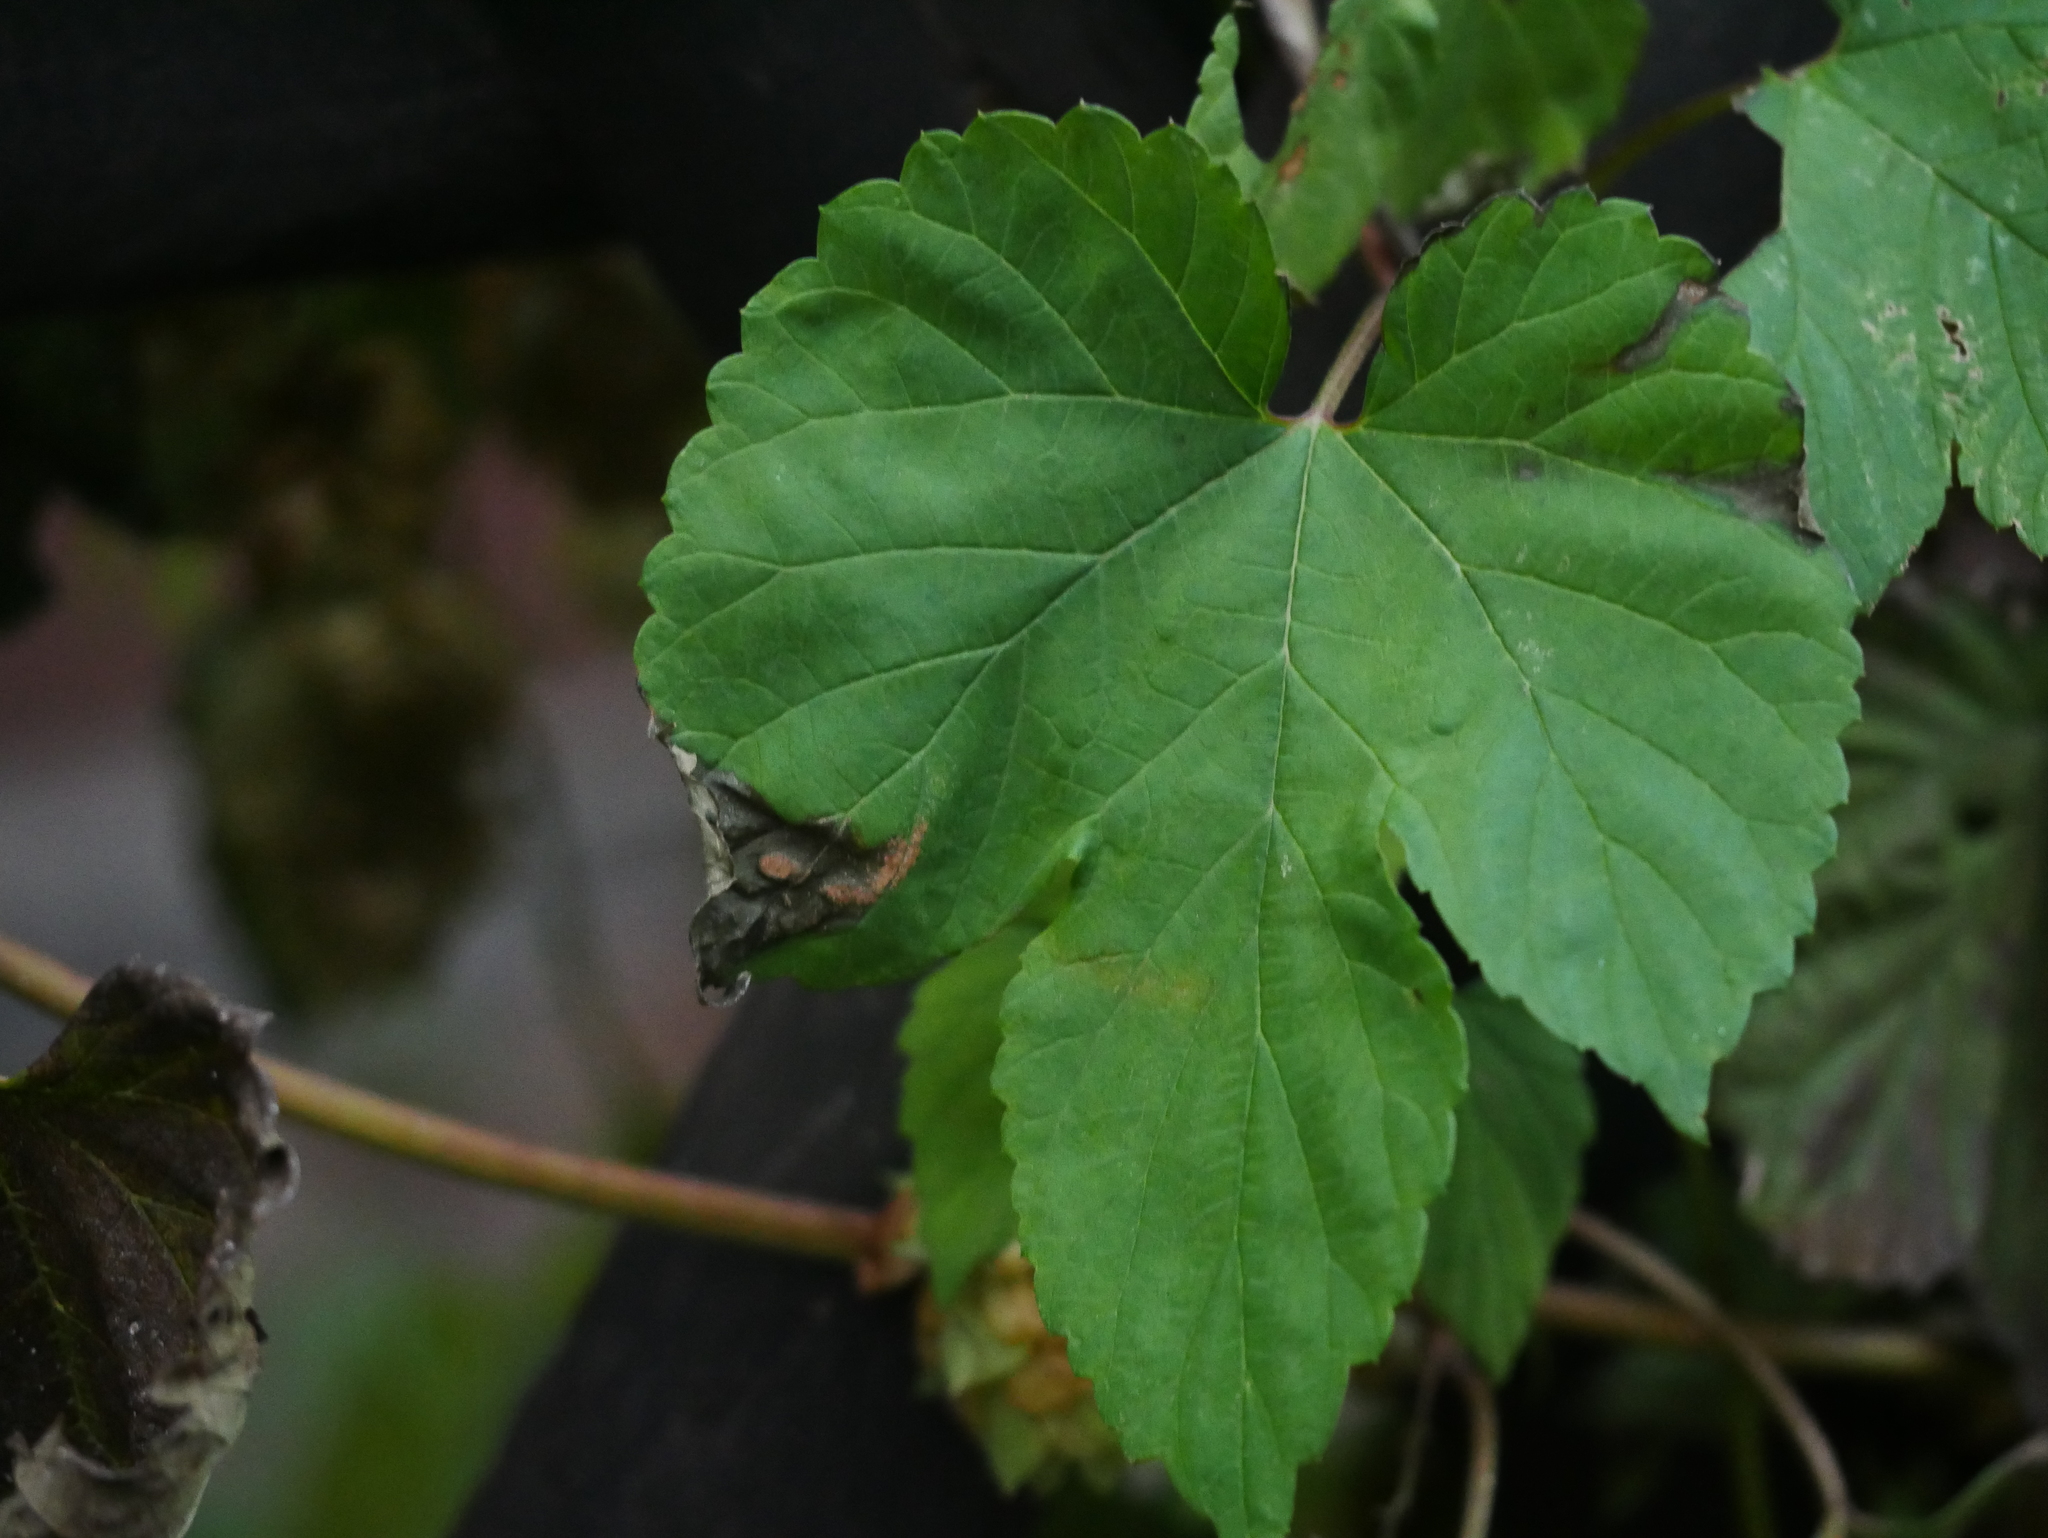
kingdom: Plantae
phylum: Tracheophyta
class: Magnoliopsida
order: Rosales
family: Cannabaceae
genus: Humulus
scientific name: Humulus lupulus
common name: Hop
